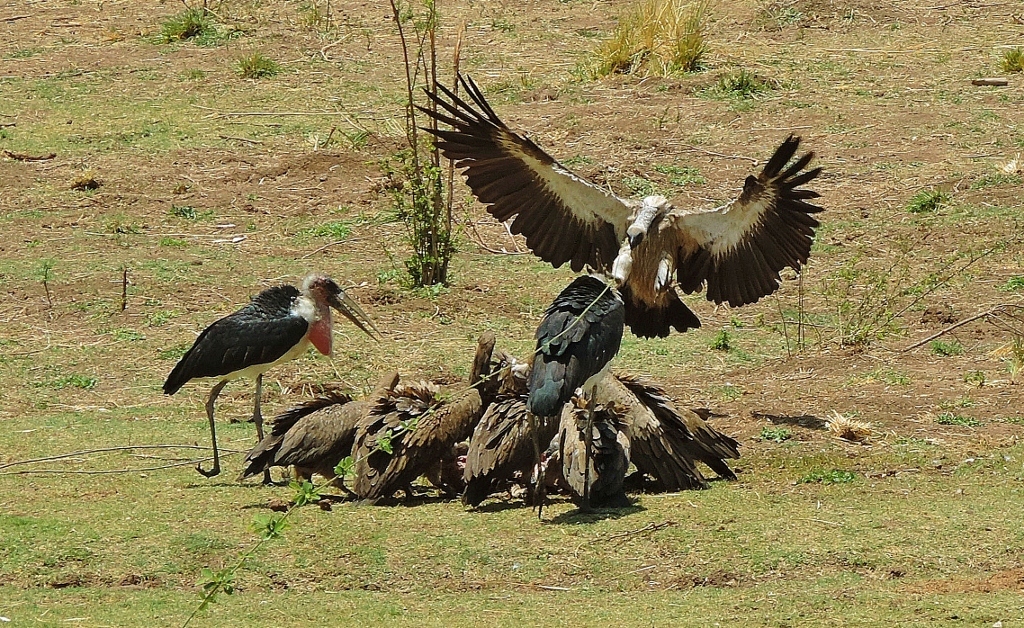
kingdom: Animalia
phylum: Chordata
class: Aves
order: Accipitriformes
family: Accipitridae
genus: Gyps
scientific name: Gyps africanus
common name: White-backed vulture
